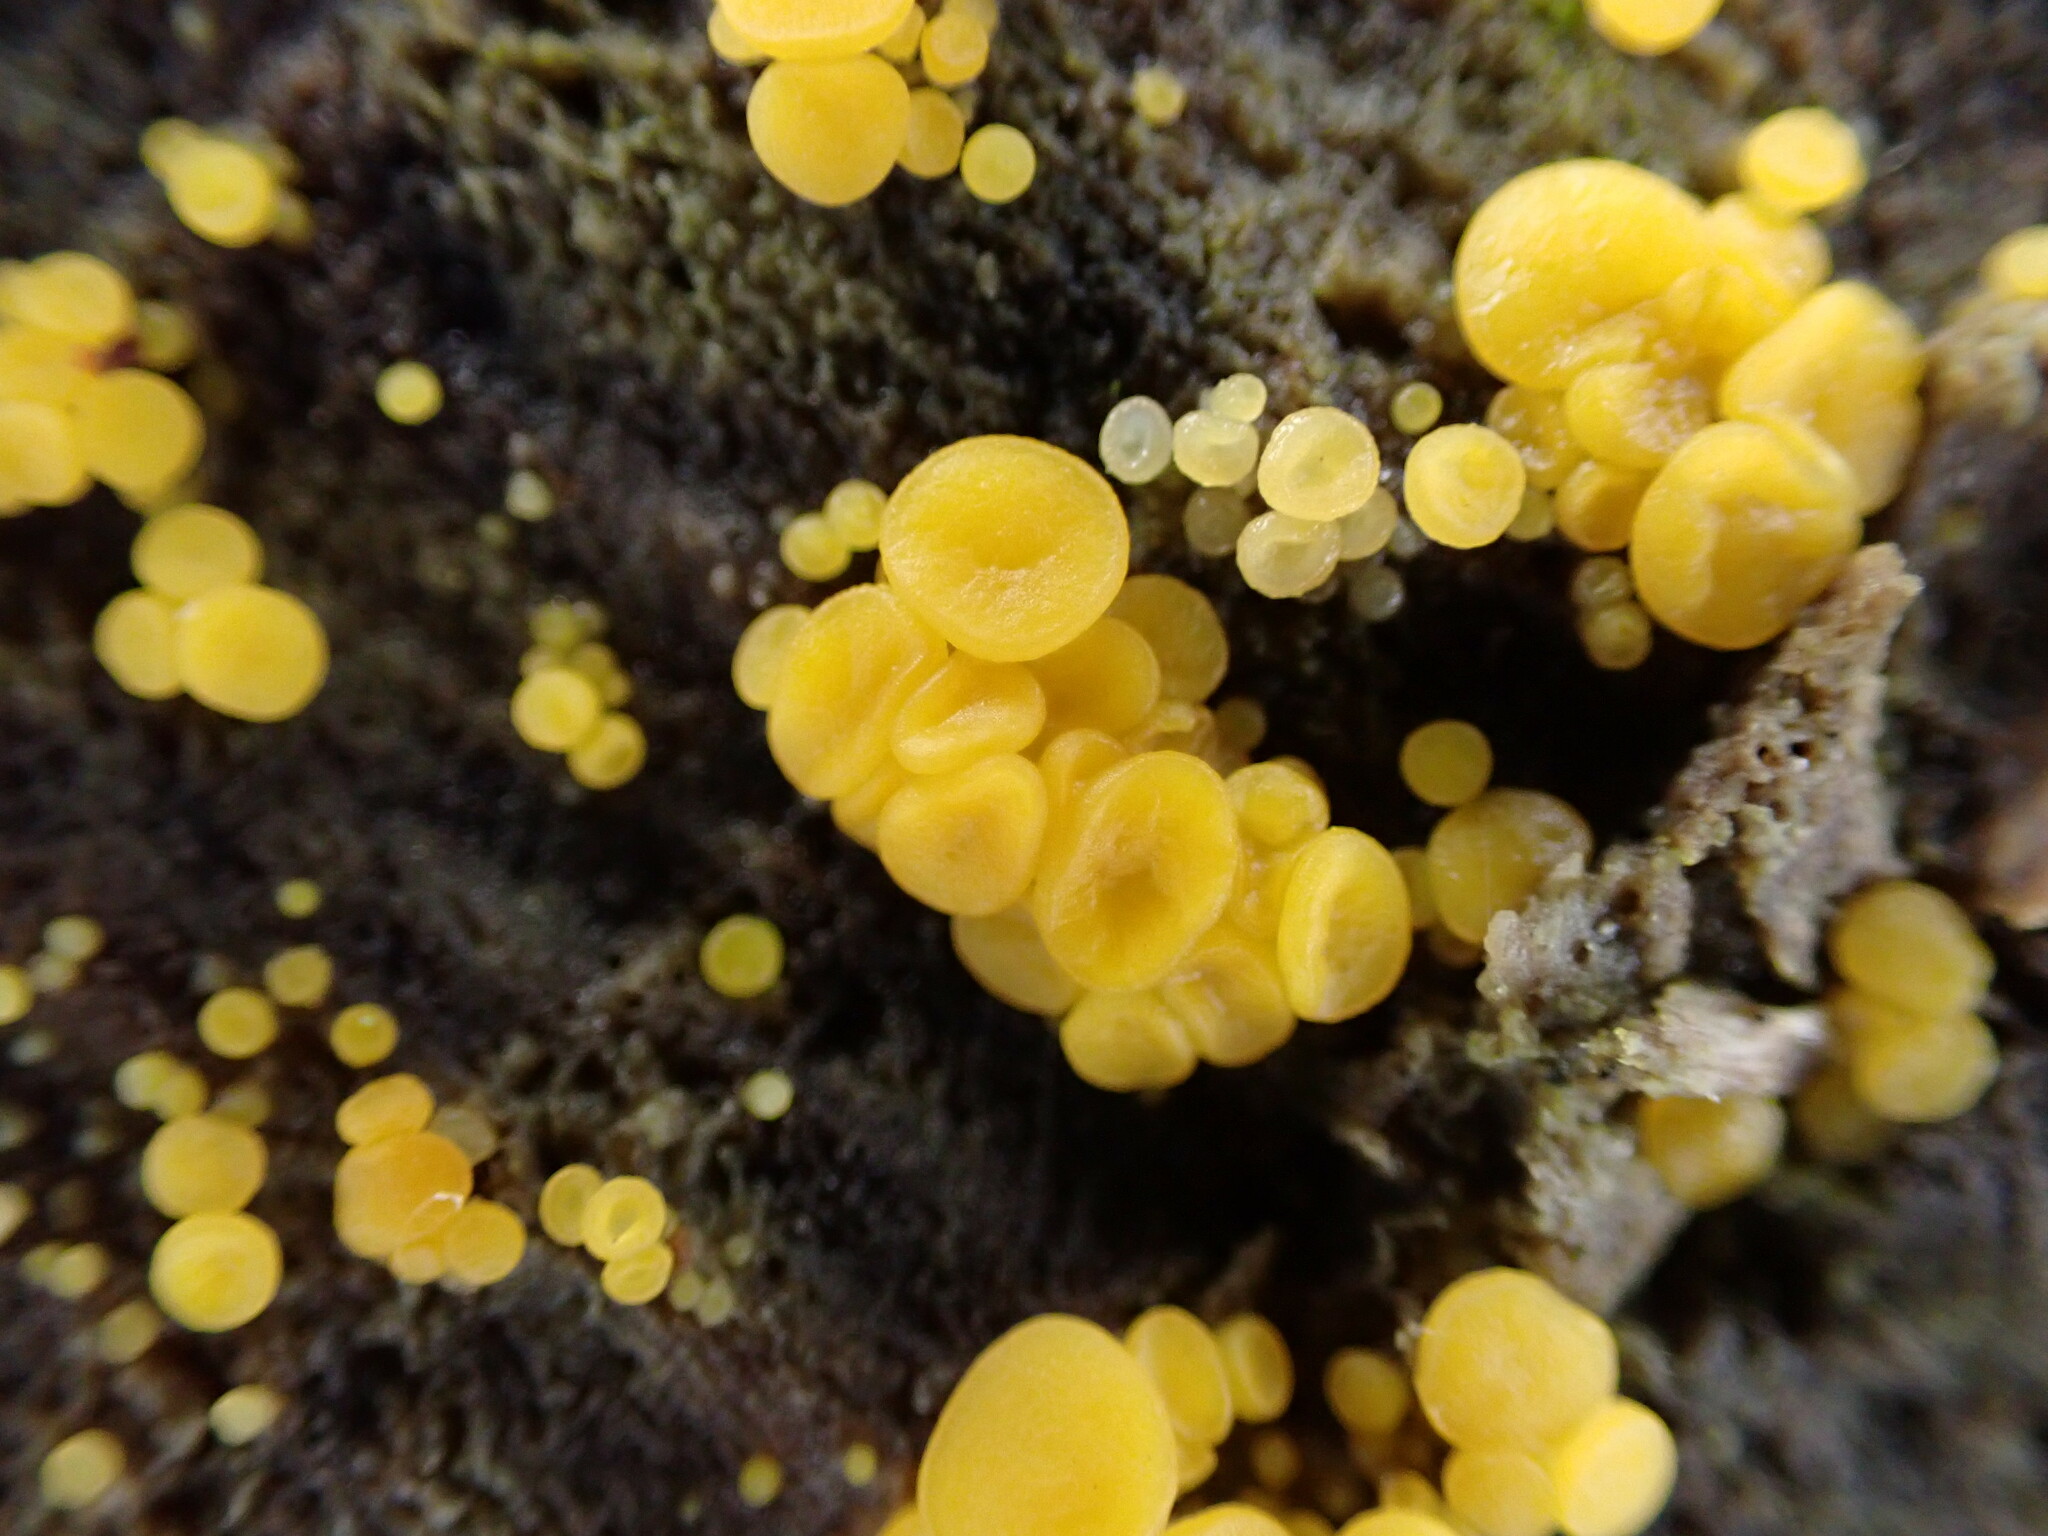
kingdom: Fungi
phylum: Ascomycota
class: Leotiomycetes
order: Helotiales
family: Pezizellaceae
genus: Calycina
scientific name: Calycina citrina
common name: Yellow fairy cups
